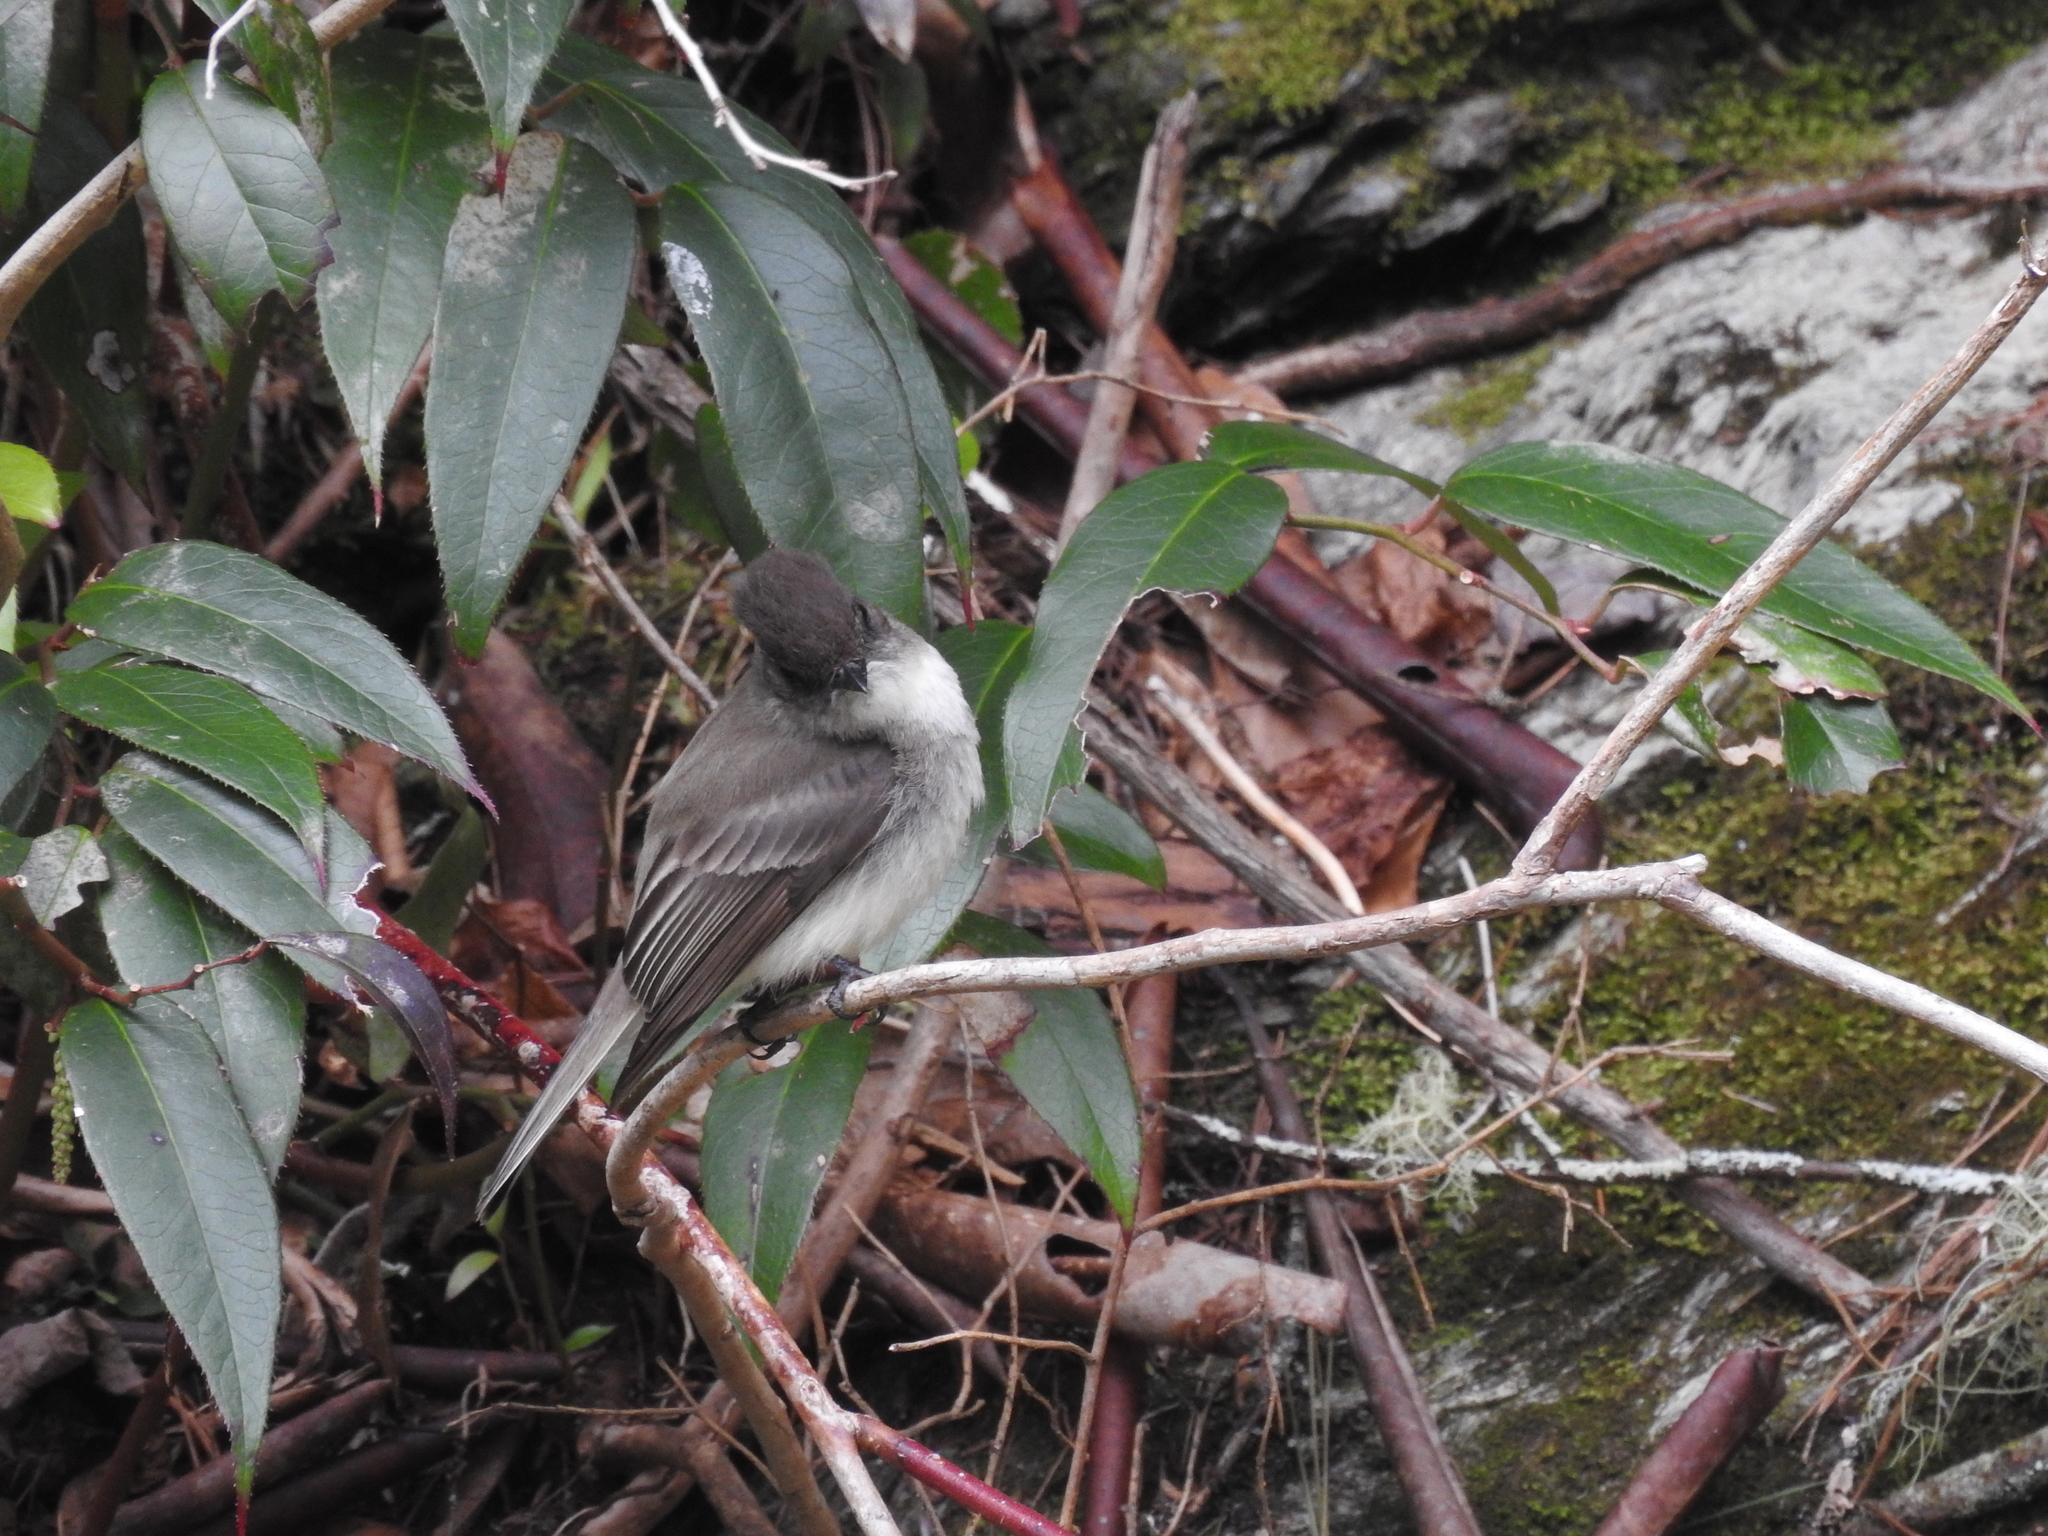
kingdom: Animalia
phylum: Chordata
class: Aves
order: Passeriformes
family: Tyrannidae
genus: Sayornis
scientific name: Sayornis phoebe
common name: Eastern phoebe
